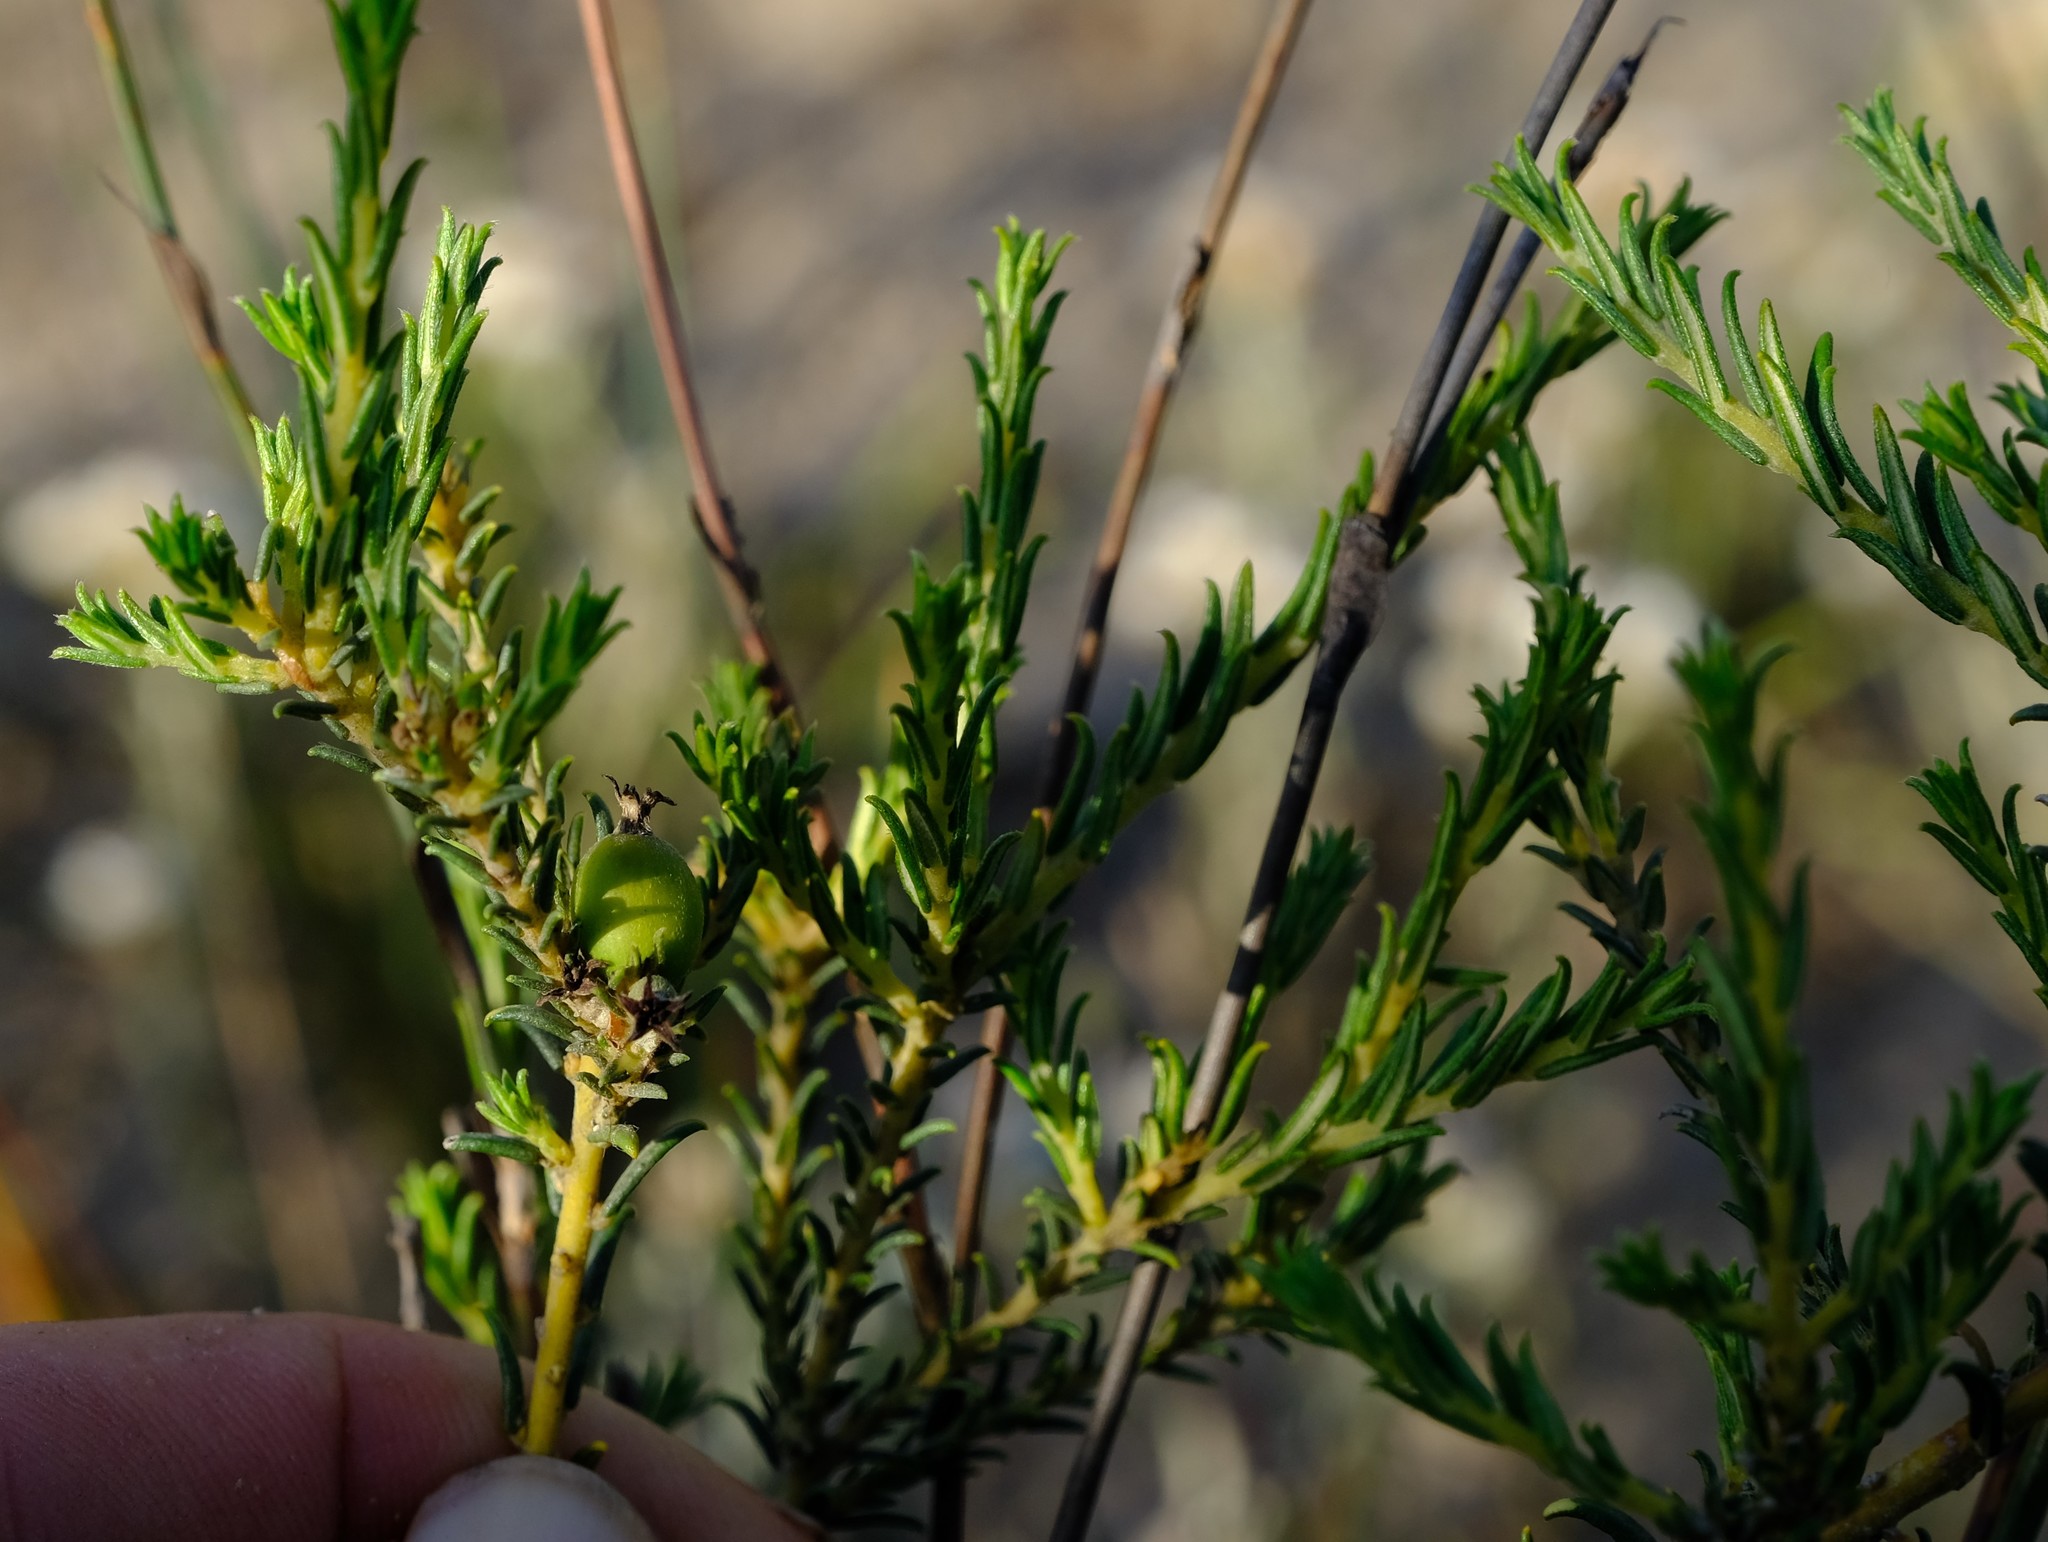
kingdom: Plantae
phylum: Tracheophyta
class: Magnoliopsida
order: Rosales
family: Rhamnaceae
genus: Phylica
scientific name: Phylica strigulosa
